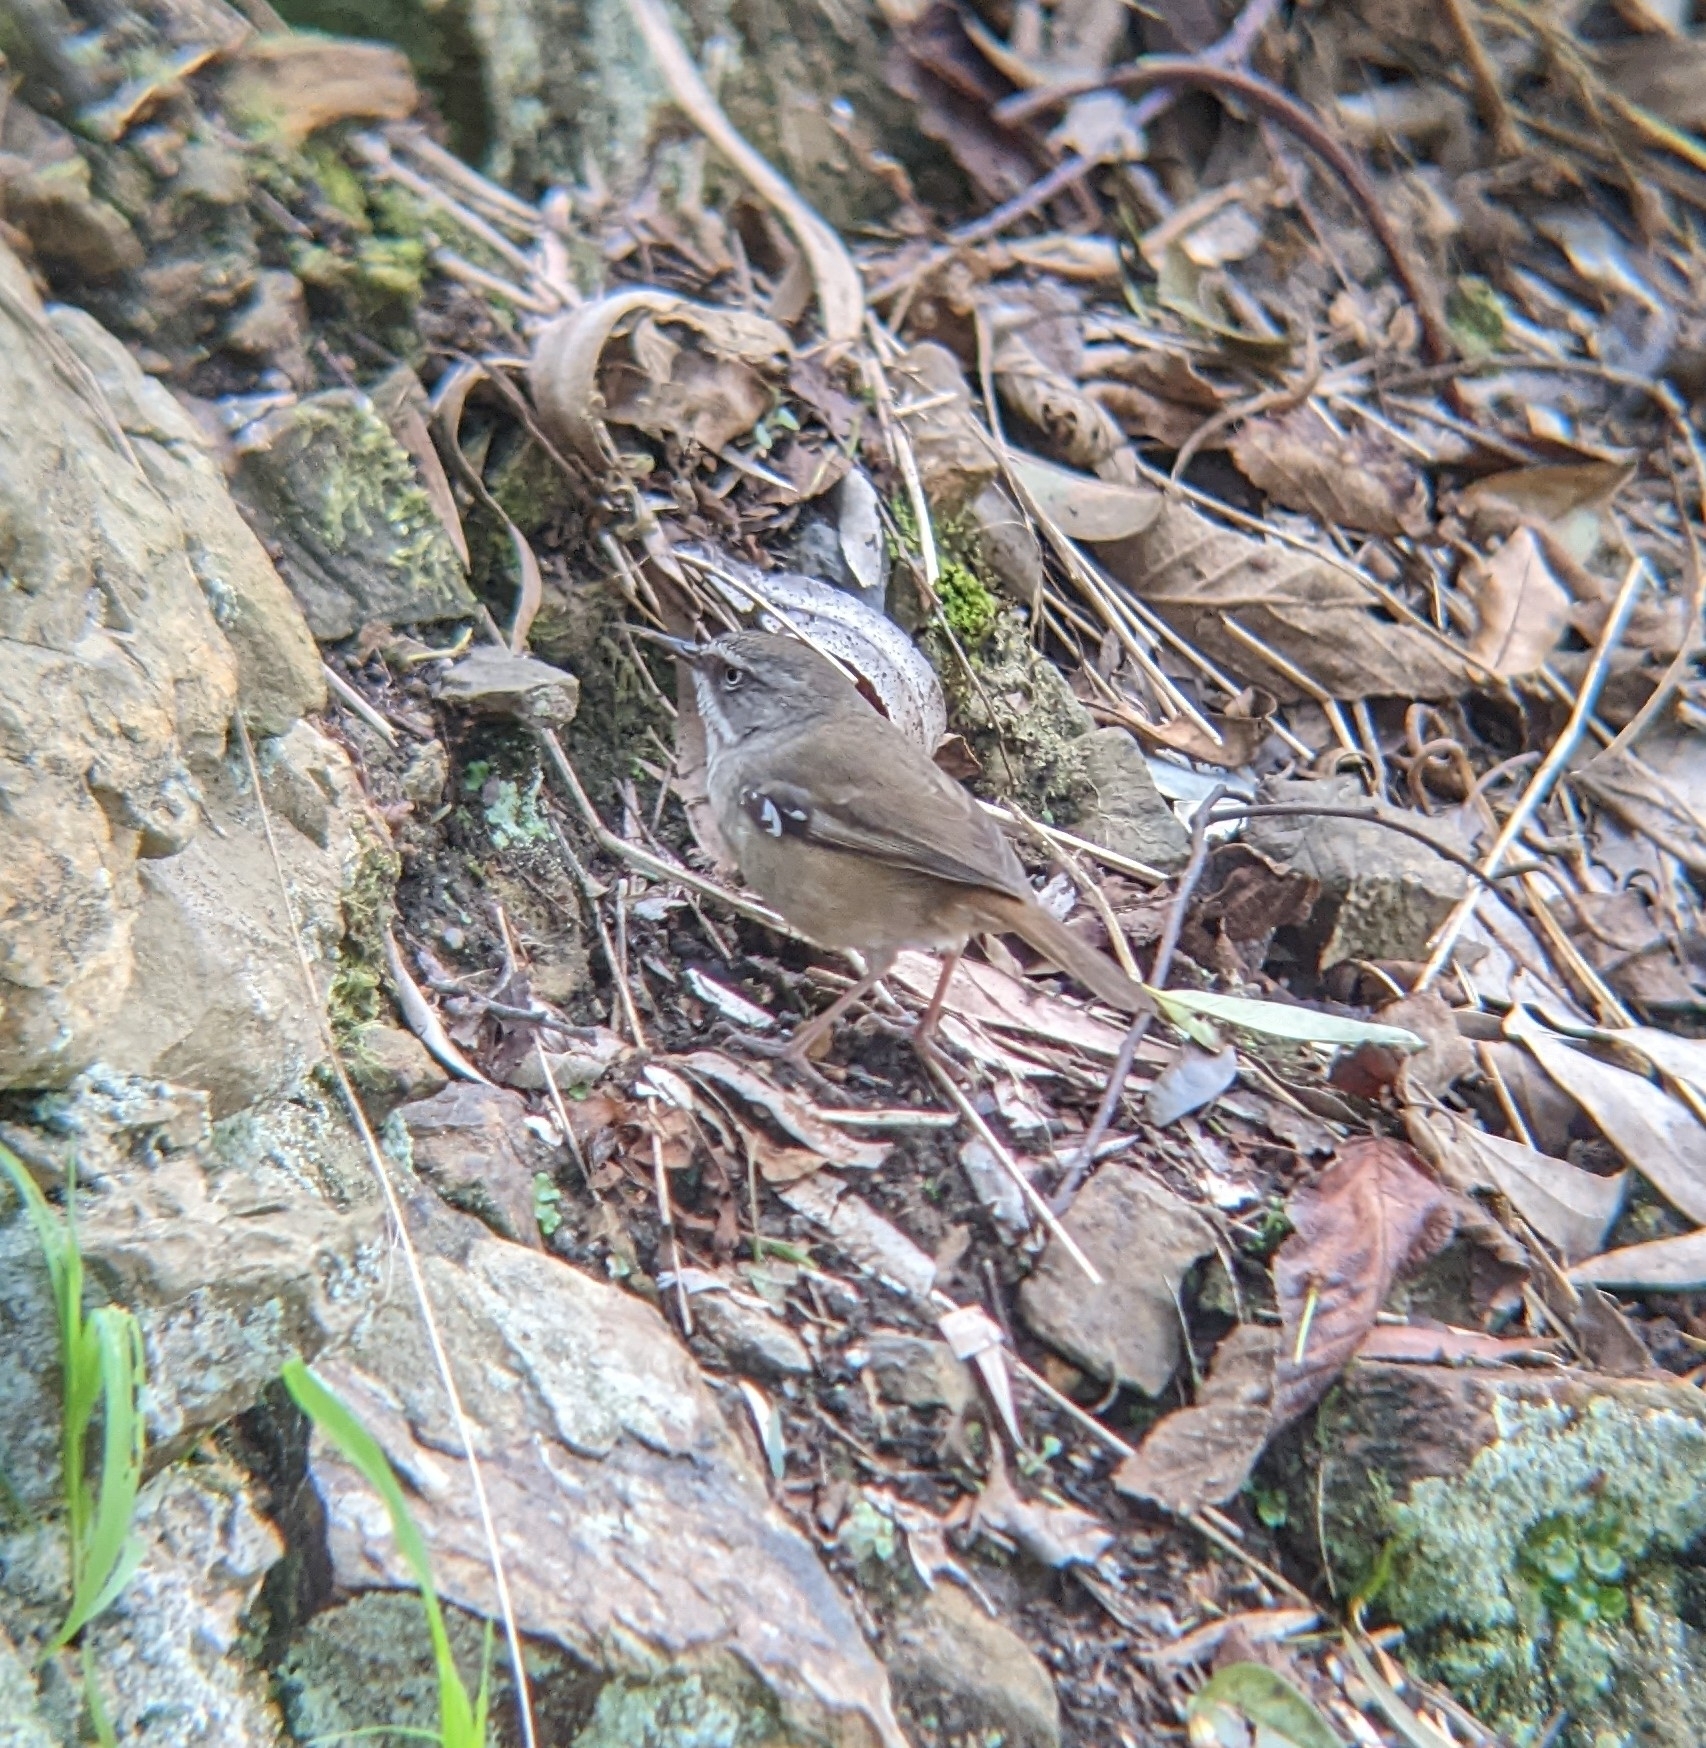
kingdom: Animalia
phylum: Chordata
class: Aves
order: Passeriformes
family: Acanthizidae
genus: Sericornis
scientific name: Sericornis frontalis
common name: White-browed scrubwren
